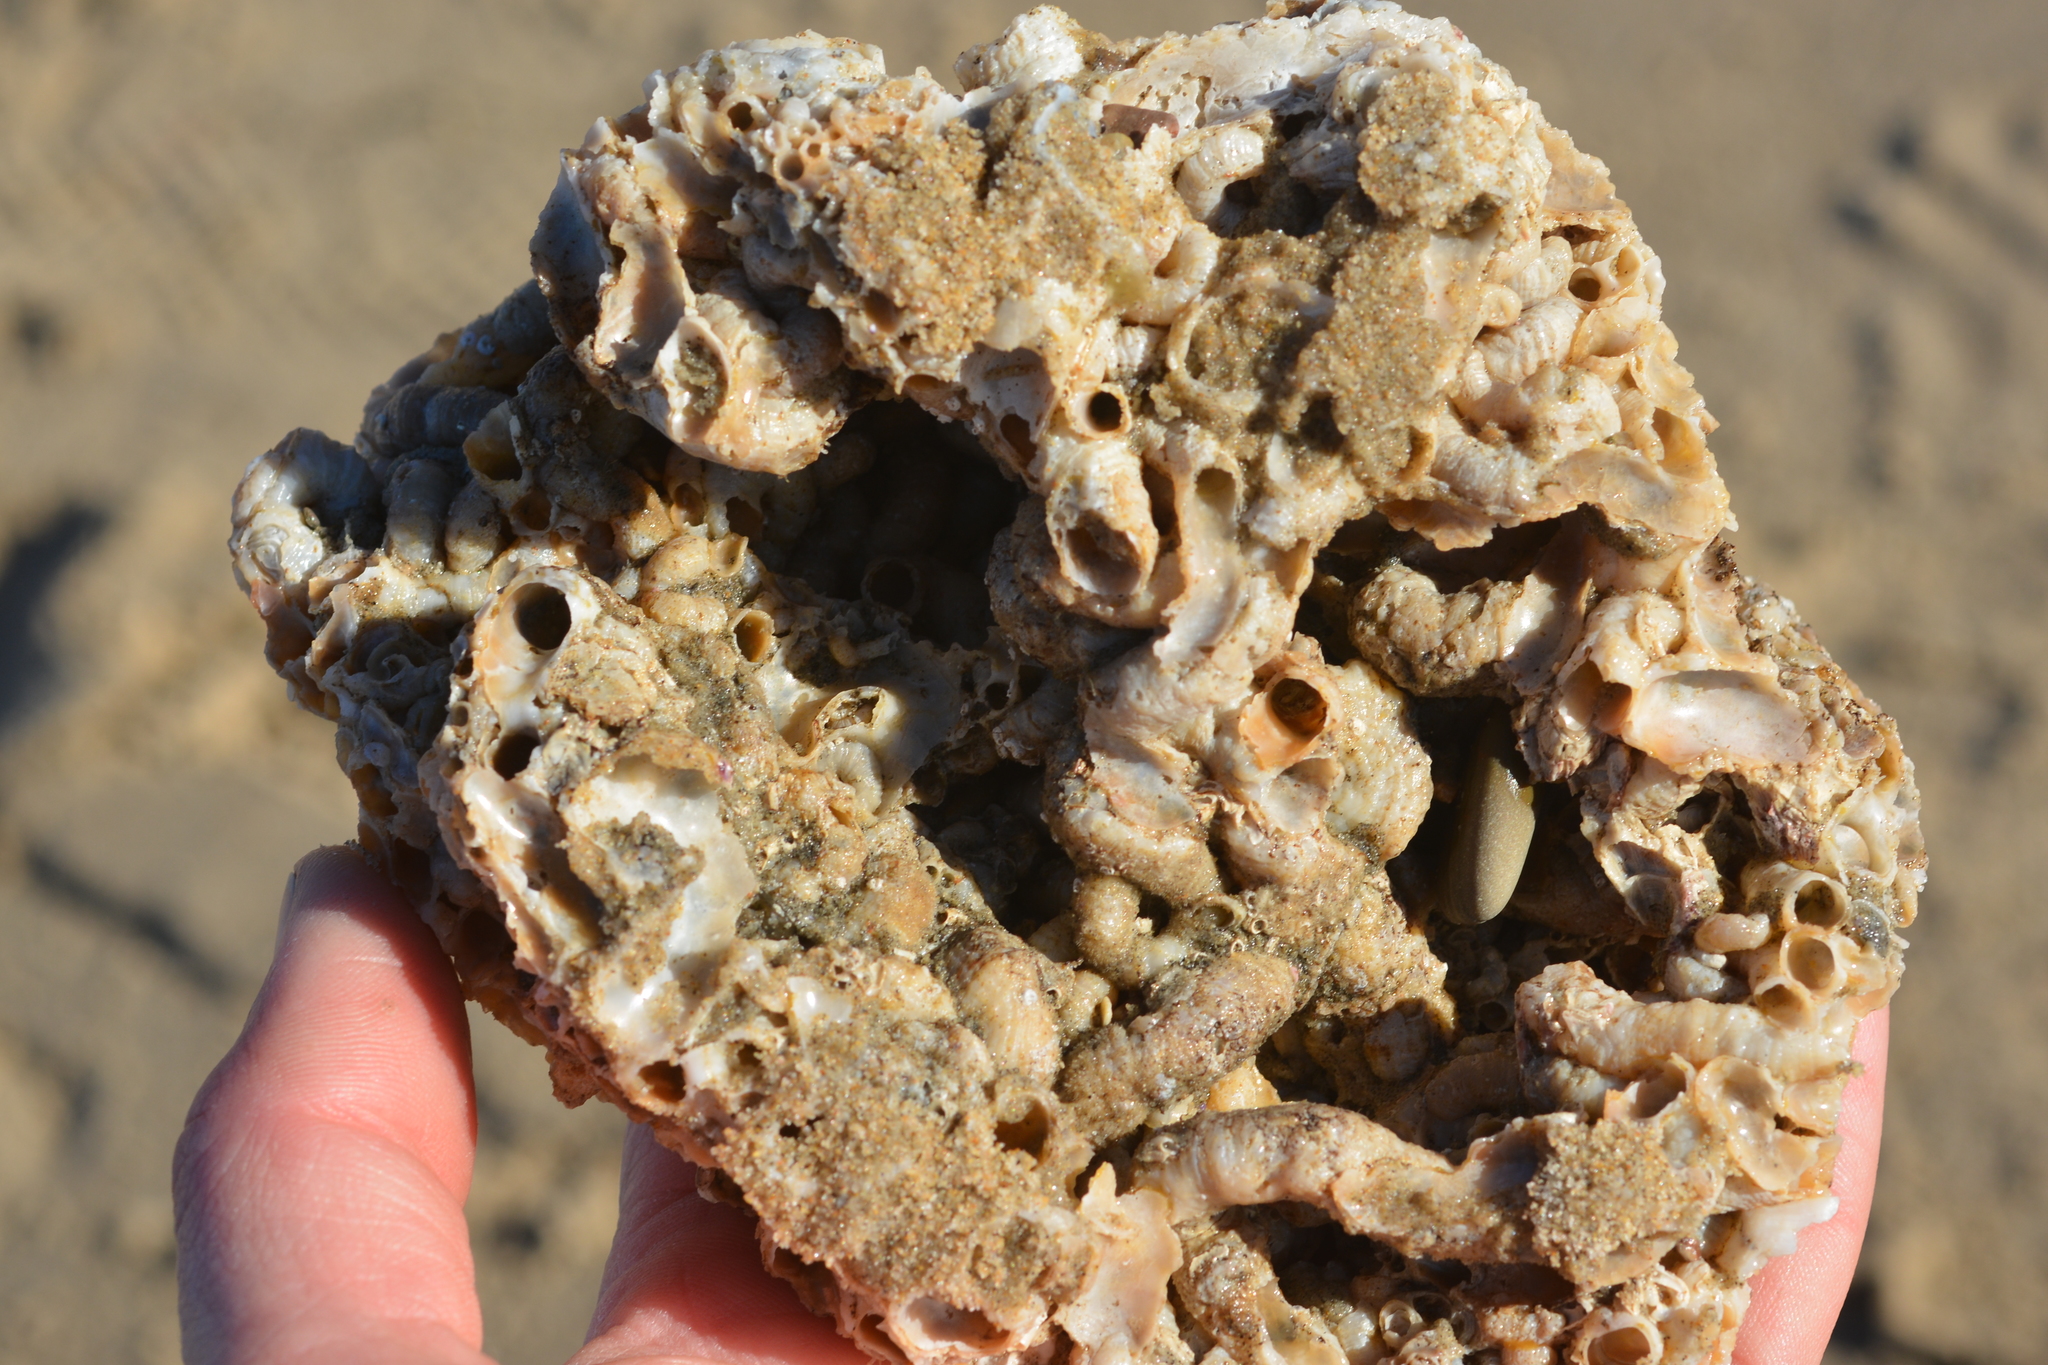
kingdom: Animalia
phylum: Mollusca
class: Gastropoda
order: Littorinimorpha
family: Vermetidae
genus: Thylacodes
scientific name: Thylacodes squamigerus
